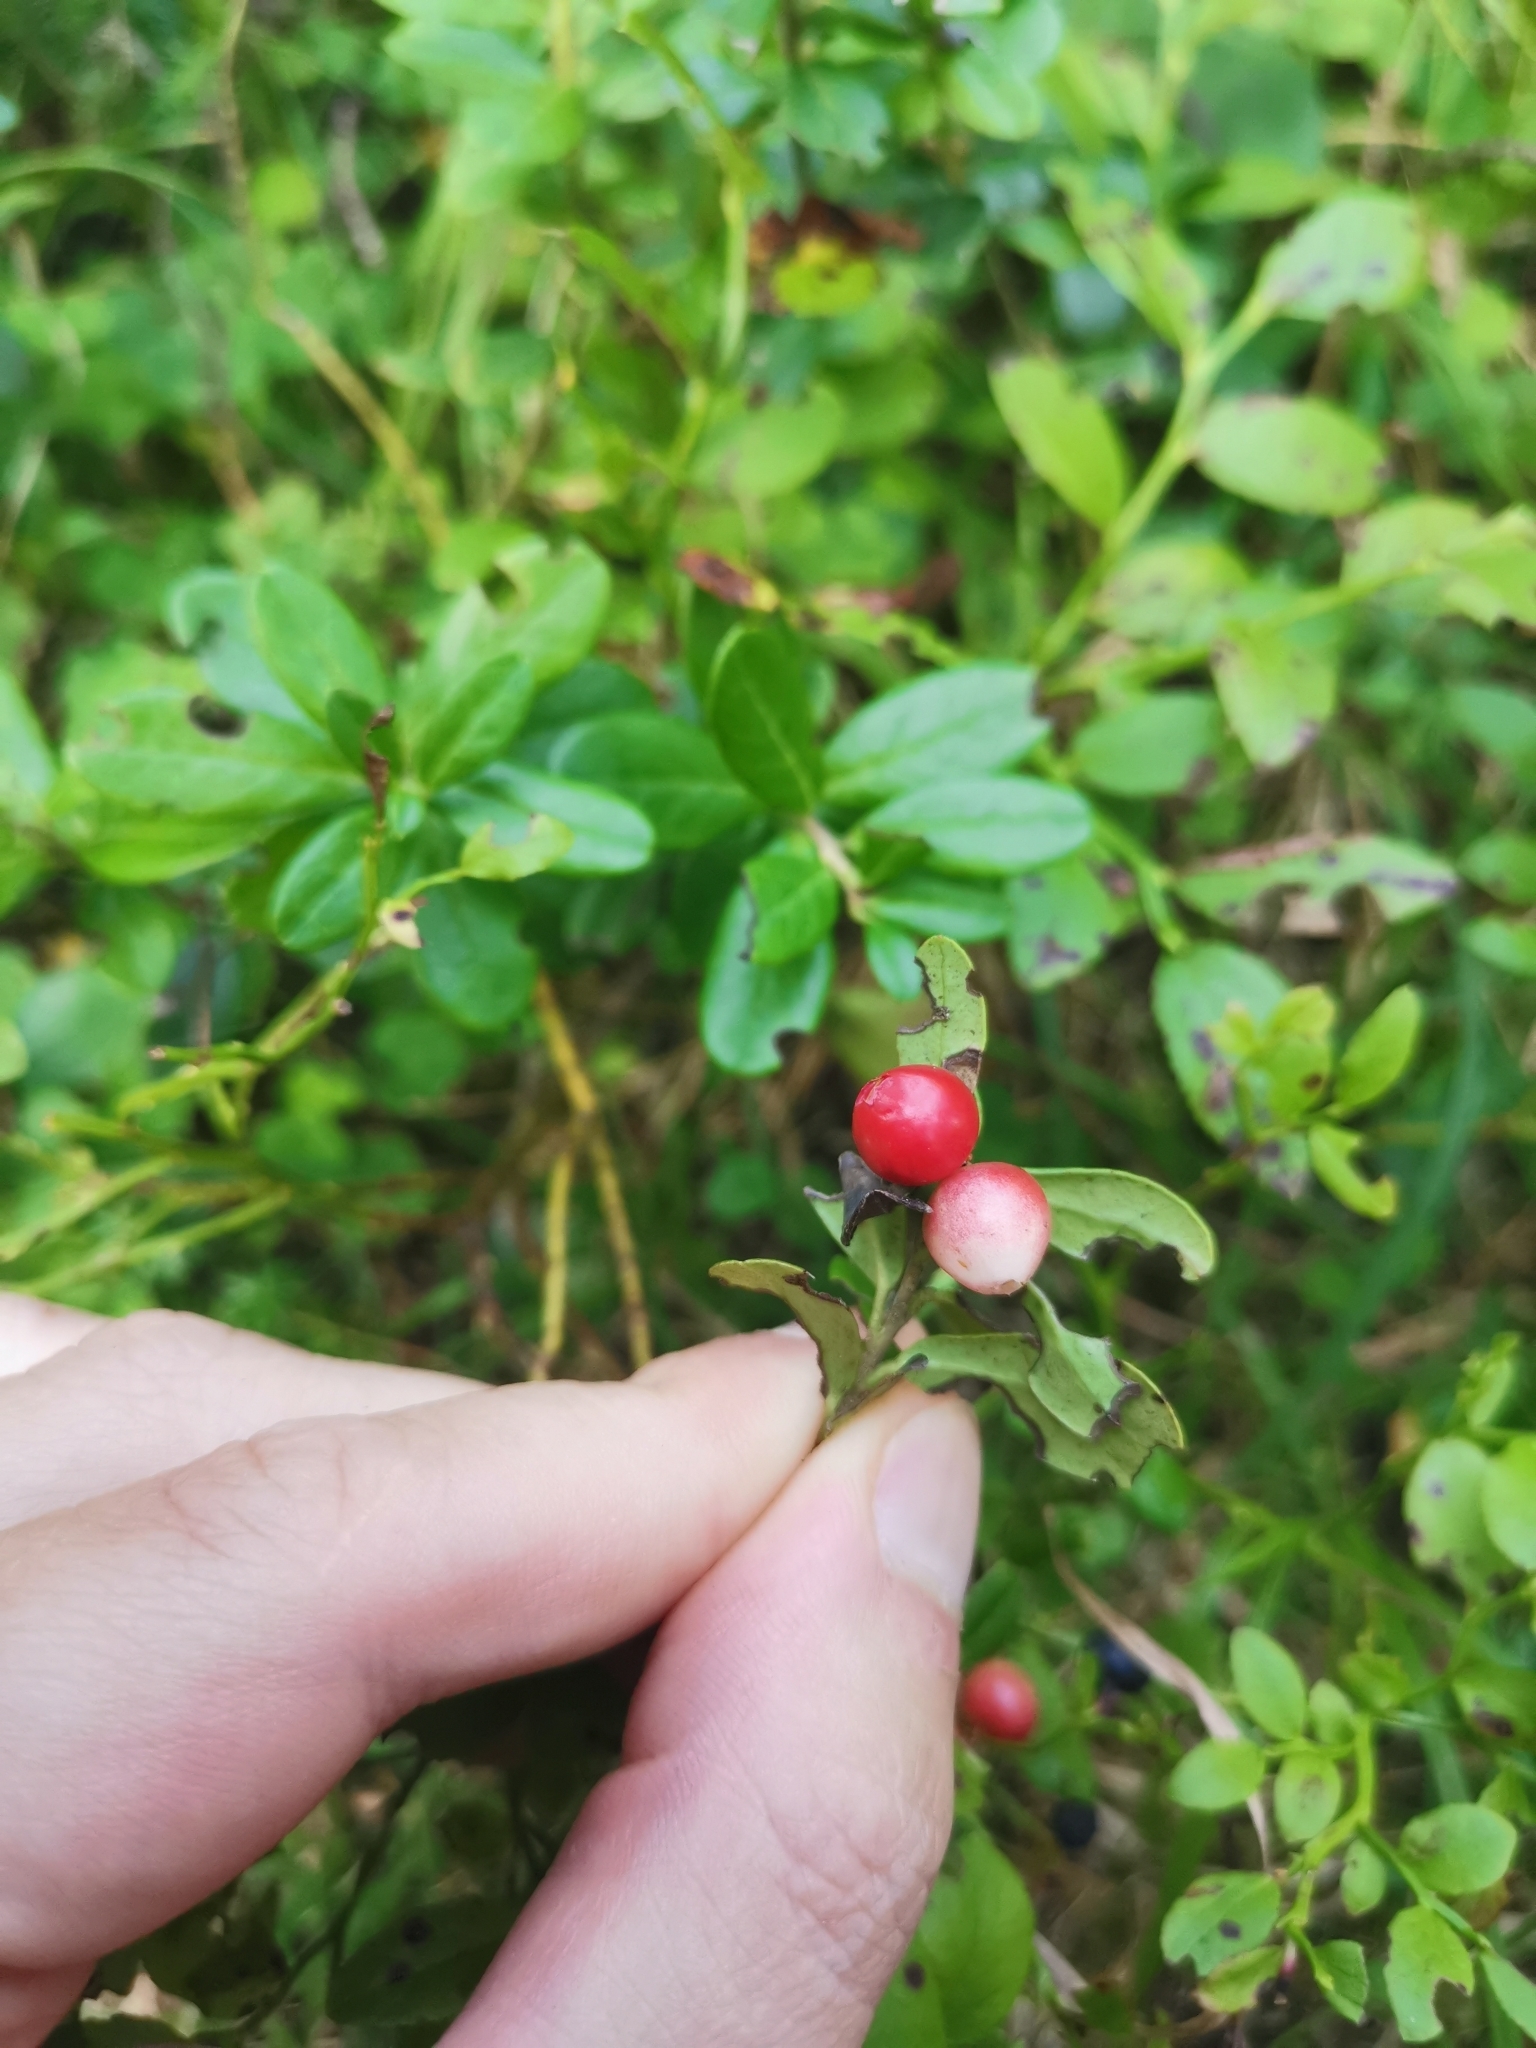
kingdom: Plantae
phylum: Tracheophyta
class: Magnoliopsida
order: Ericales
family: Ericaceae
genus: Vaccinium
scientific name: Vaccinium vitis-idaea
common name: Cowberry
